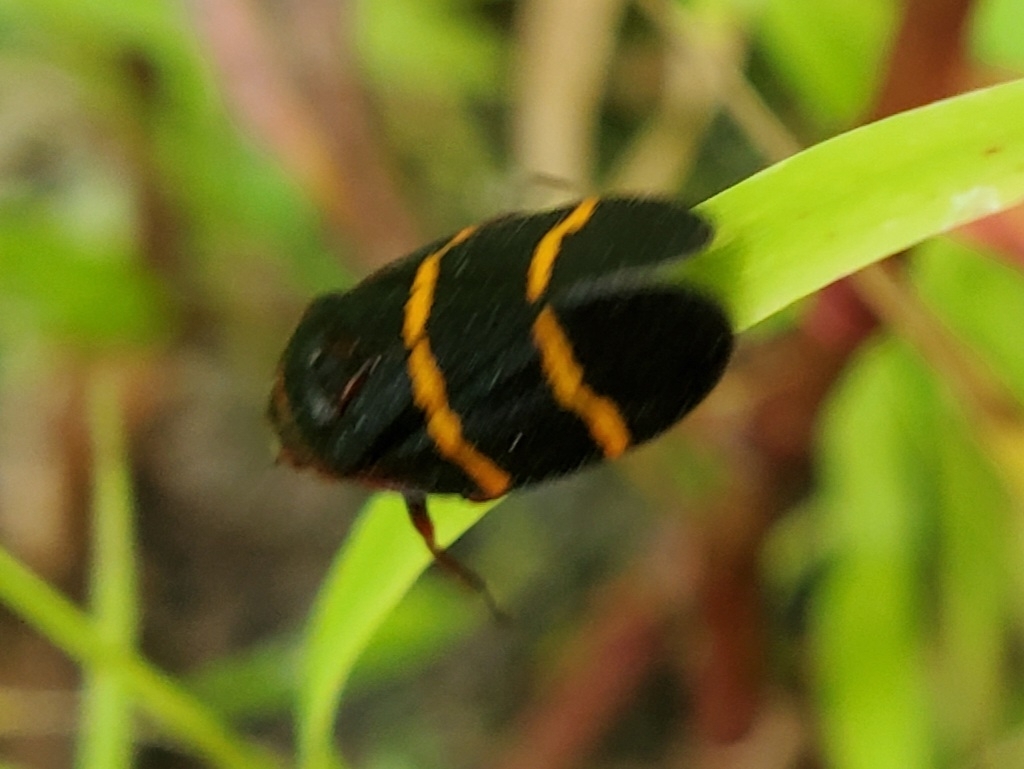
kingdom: Animalia
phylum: Arthropoda
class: Insecta
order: Hemiptera
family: Cercopidae
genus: Prosapia
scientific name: Prosapia bicincta
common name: Twolined spittlebug
